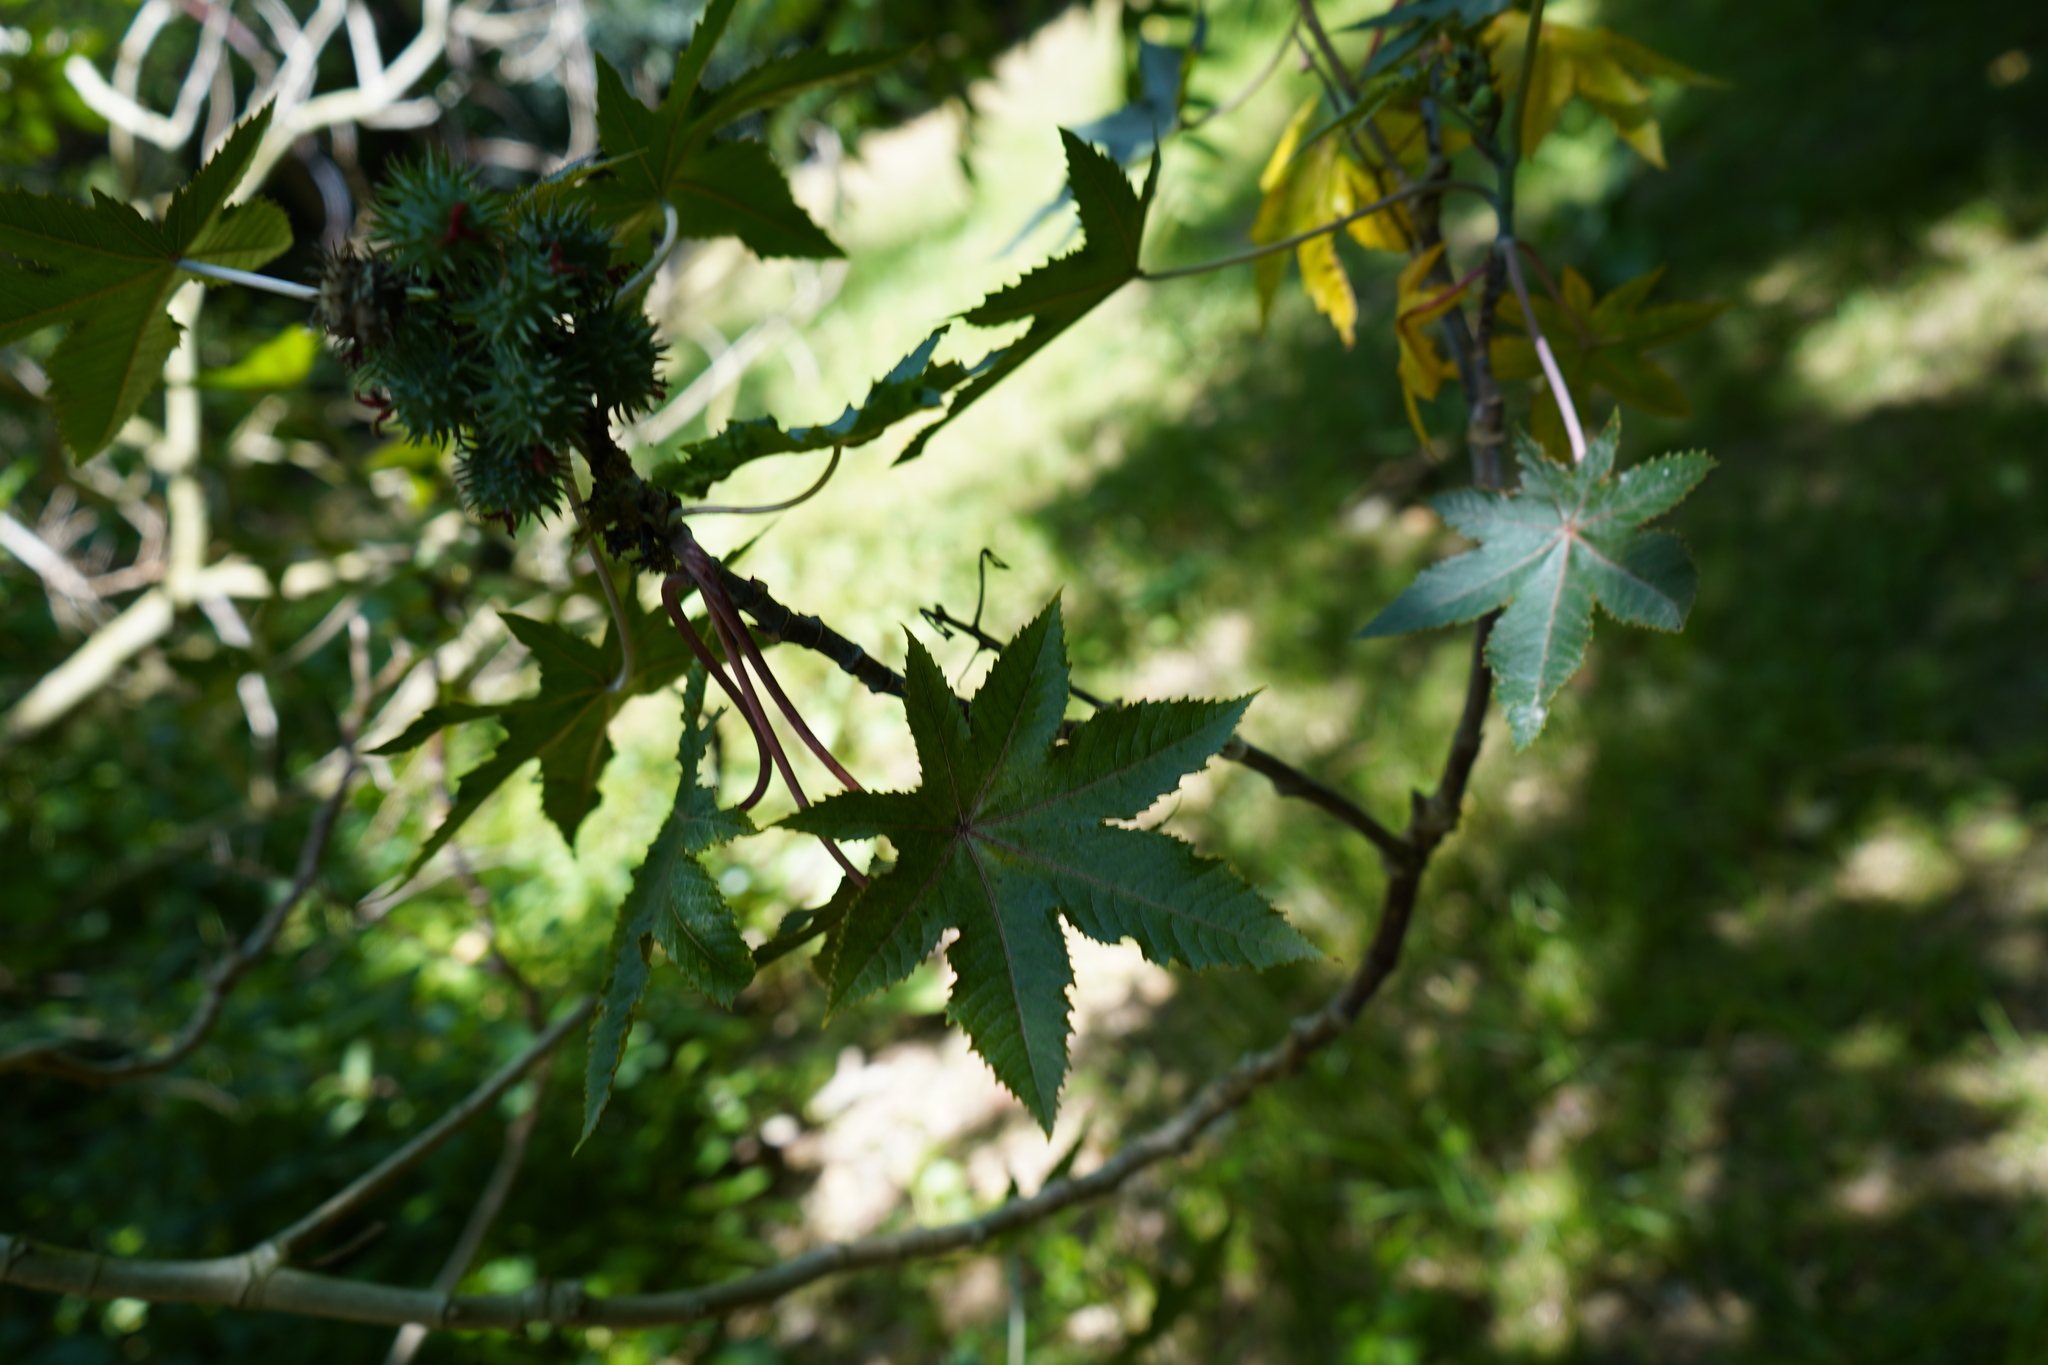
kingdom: Plantae
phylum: Tracheophyta
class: Magnoliopsida
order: Malpighiales
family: Euphorbiaceae
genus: Ricinus
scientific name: Ricinus communis
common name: Castor-oil-plant
